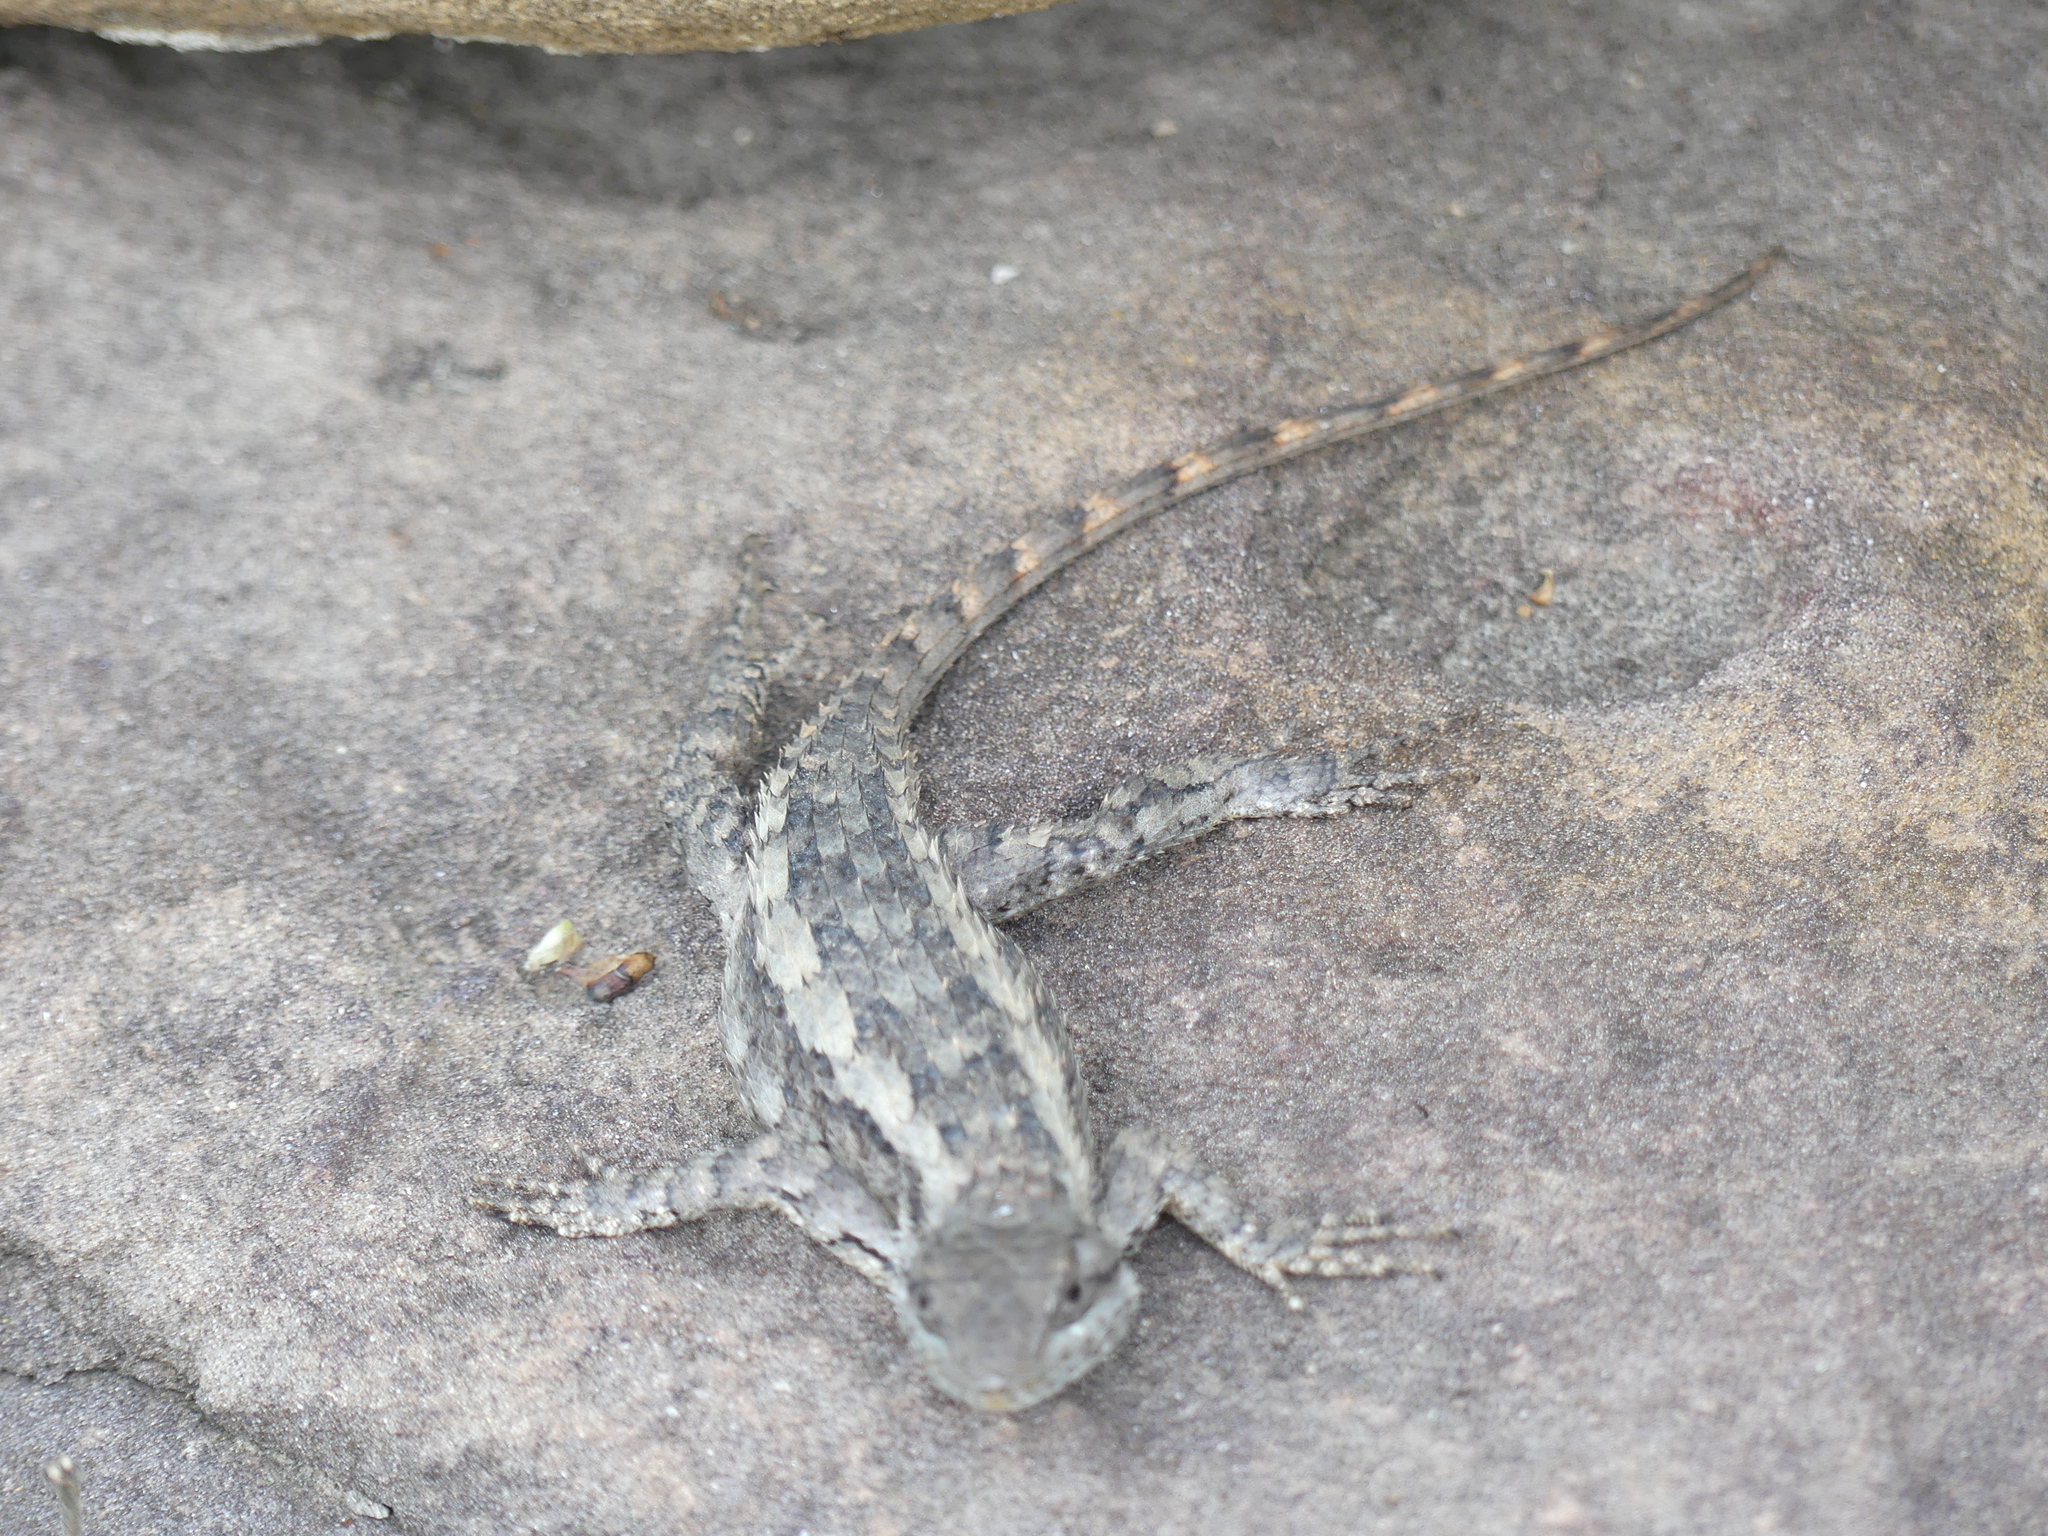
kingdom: Animalia
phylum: Chordata
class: Squamata
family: Phrynosomatidae
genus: Sceloporus
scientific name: Sceloporus olivaceus
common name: Texas spiny lizard
